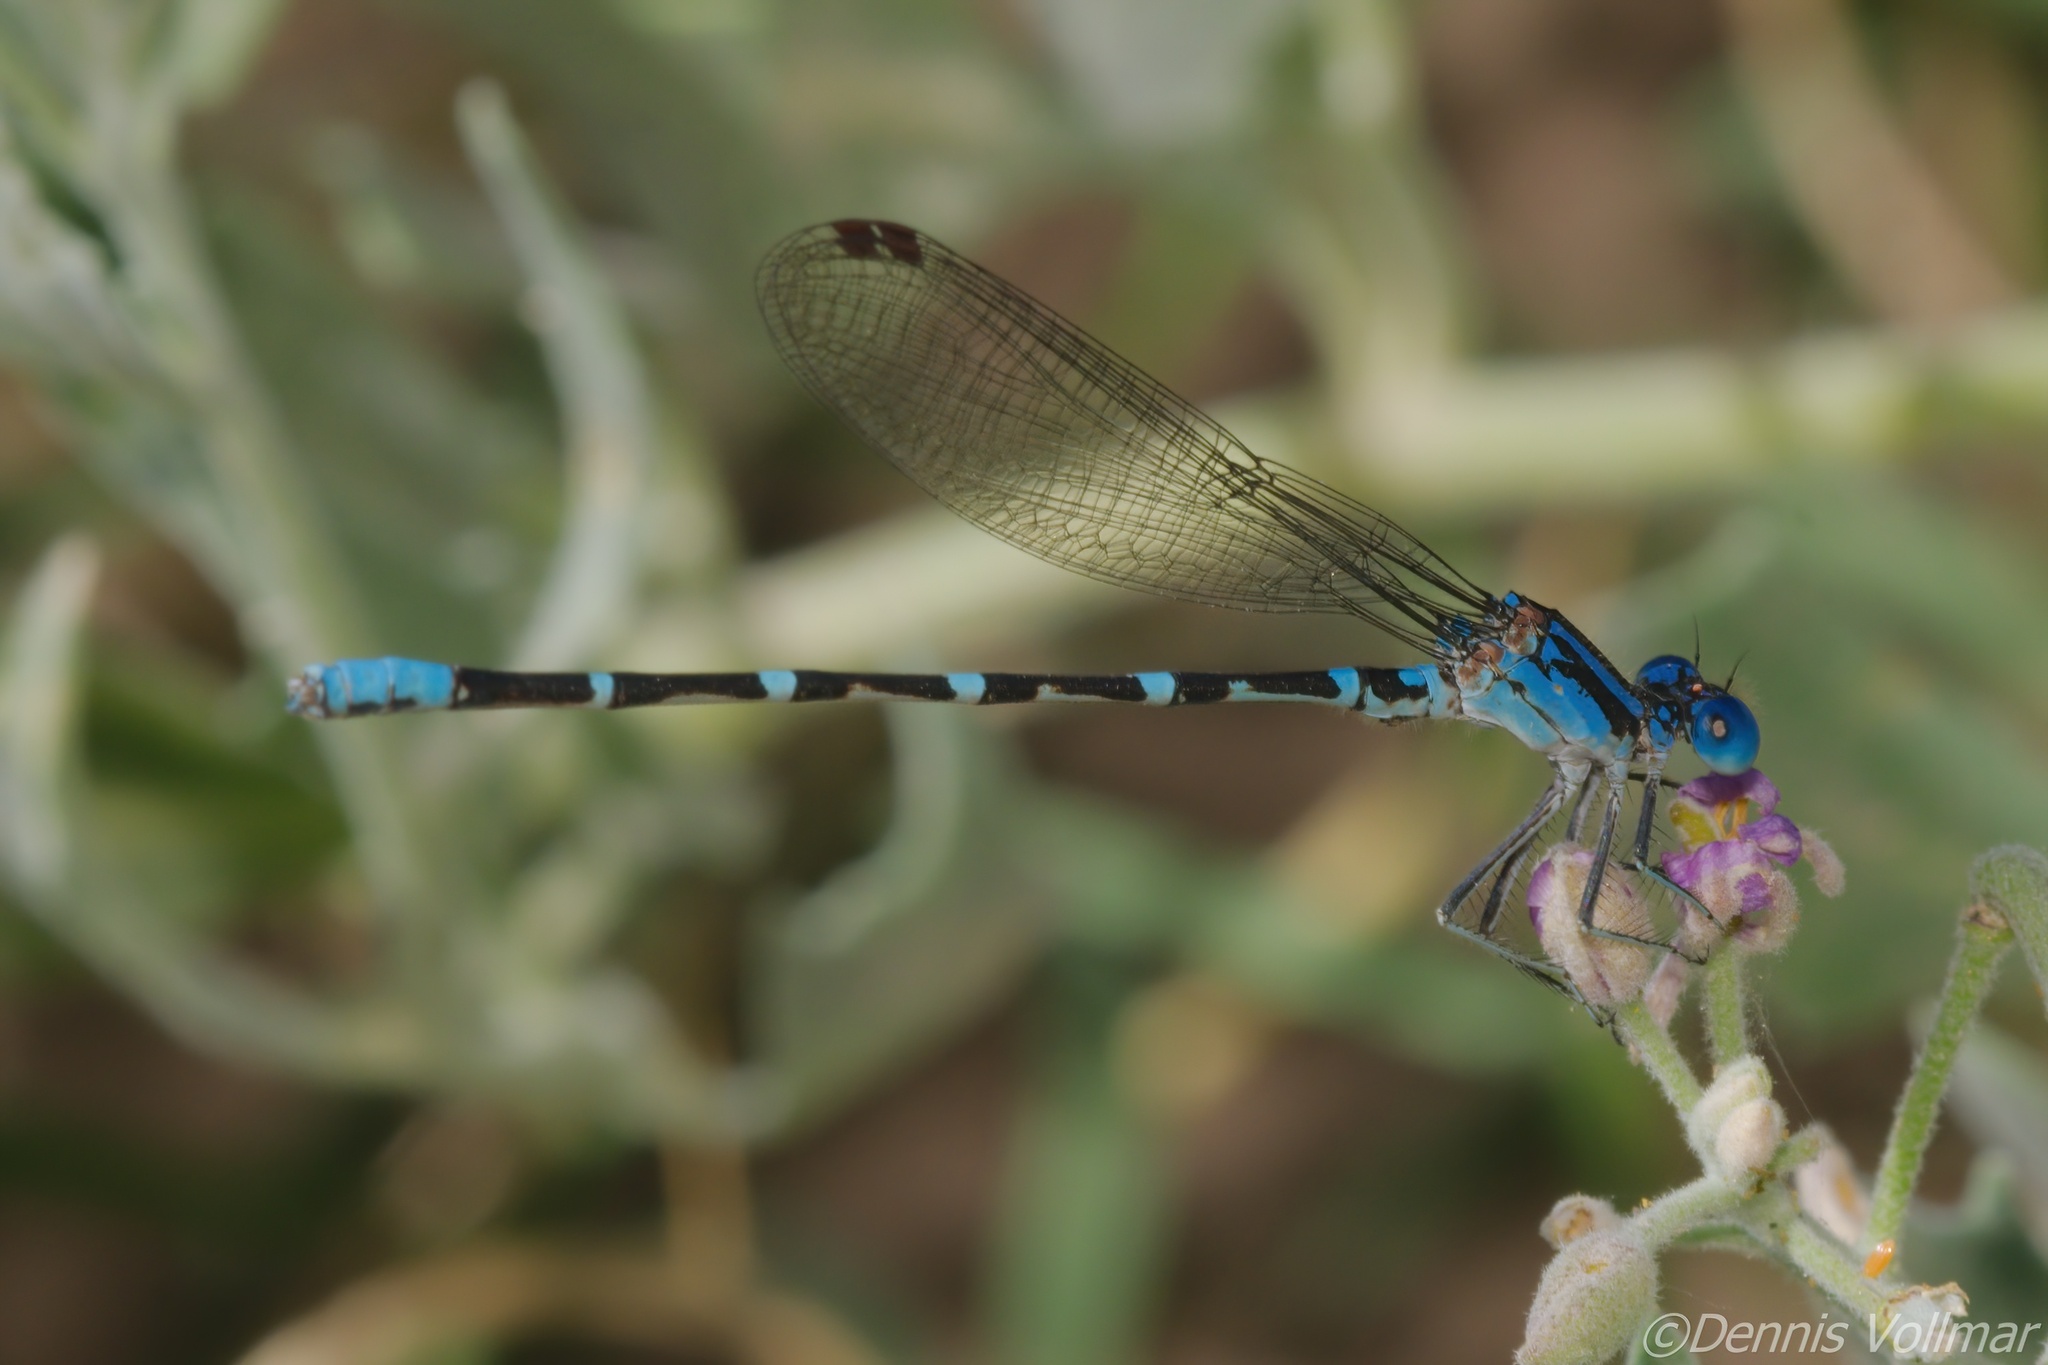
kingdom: Animalia
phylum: Arthropoda
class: Insecta
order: Odonata
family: Coenagrionidae
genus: Argia
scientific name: Argia sedula
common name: Blue-ringed dancer
